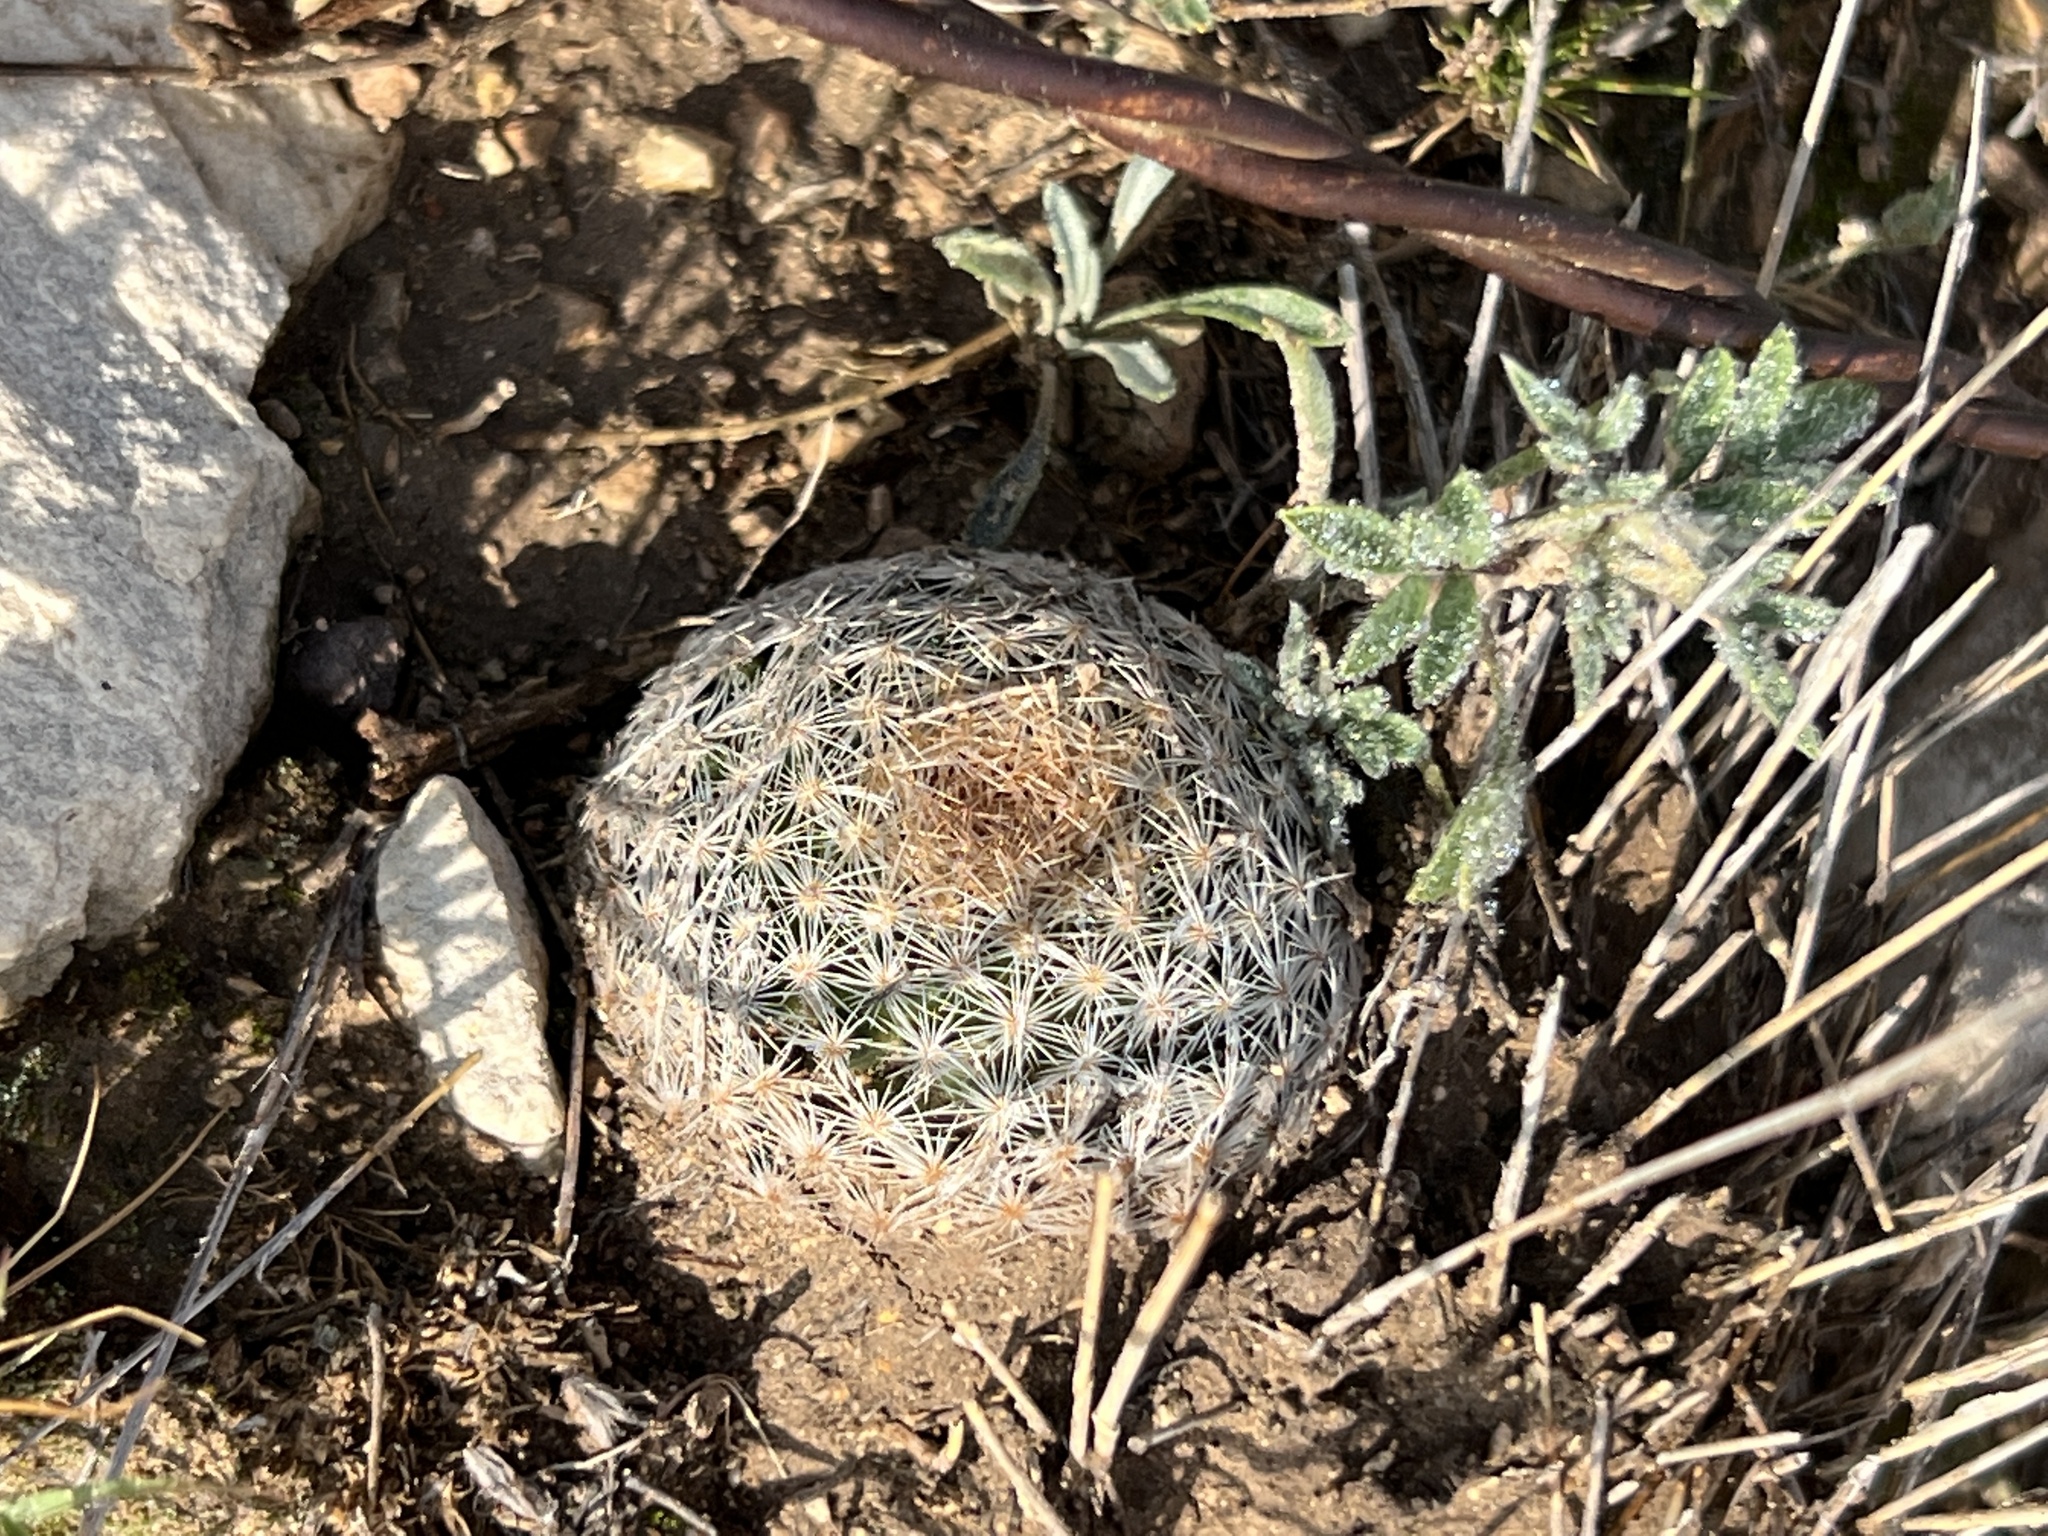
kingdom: Plantae
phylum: Tracheophyta
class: Magnoliopsida
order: Caryophyllales
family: Cactaceae
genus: Mammillaria
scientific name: Mammillaria lasiacantha
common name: Lace-spine nipple cactus
